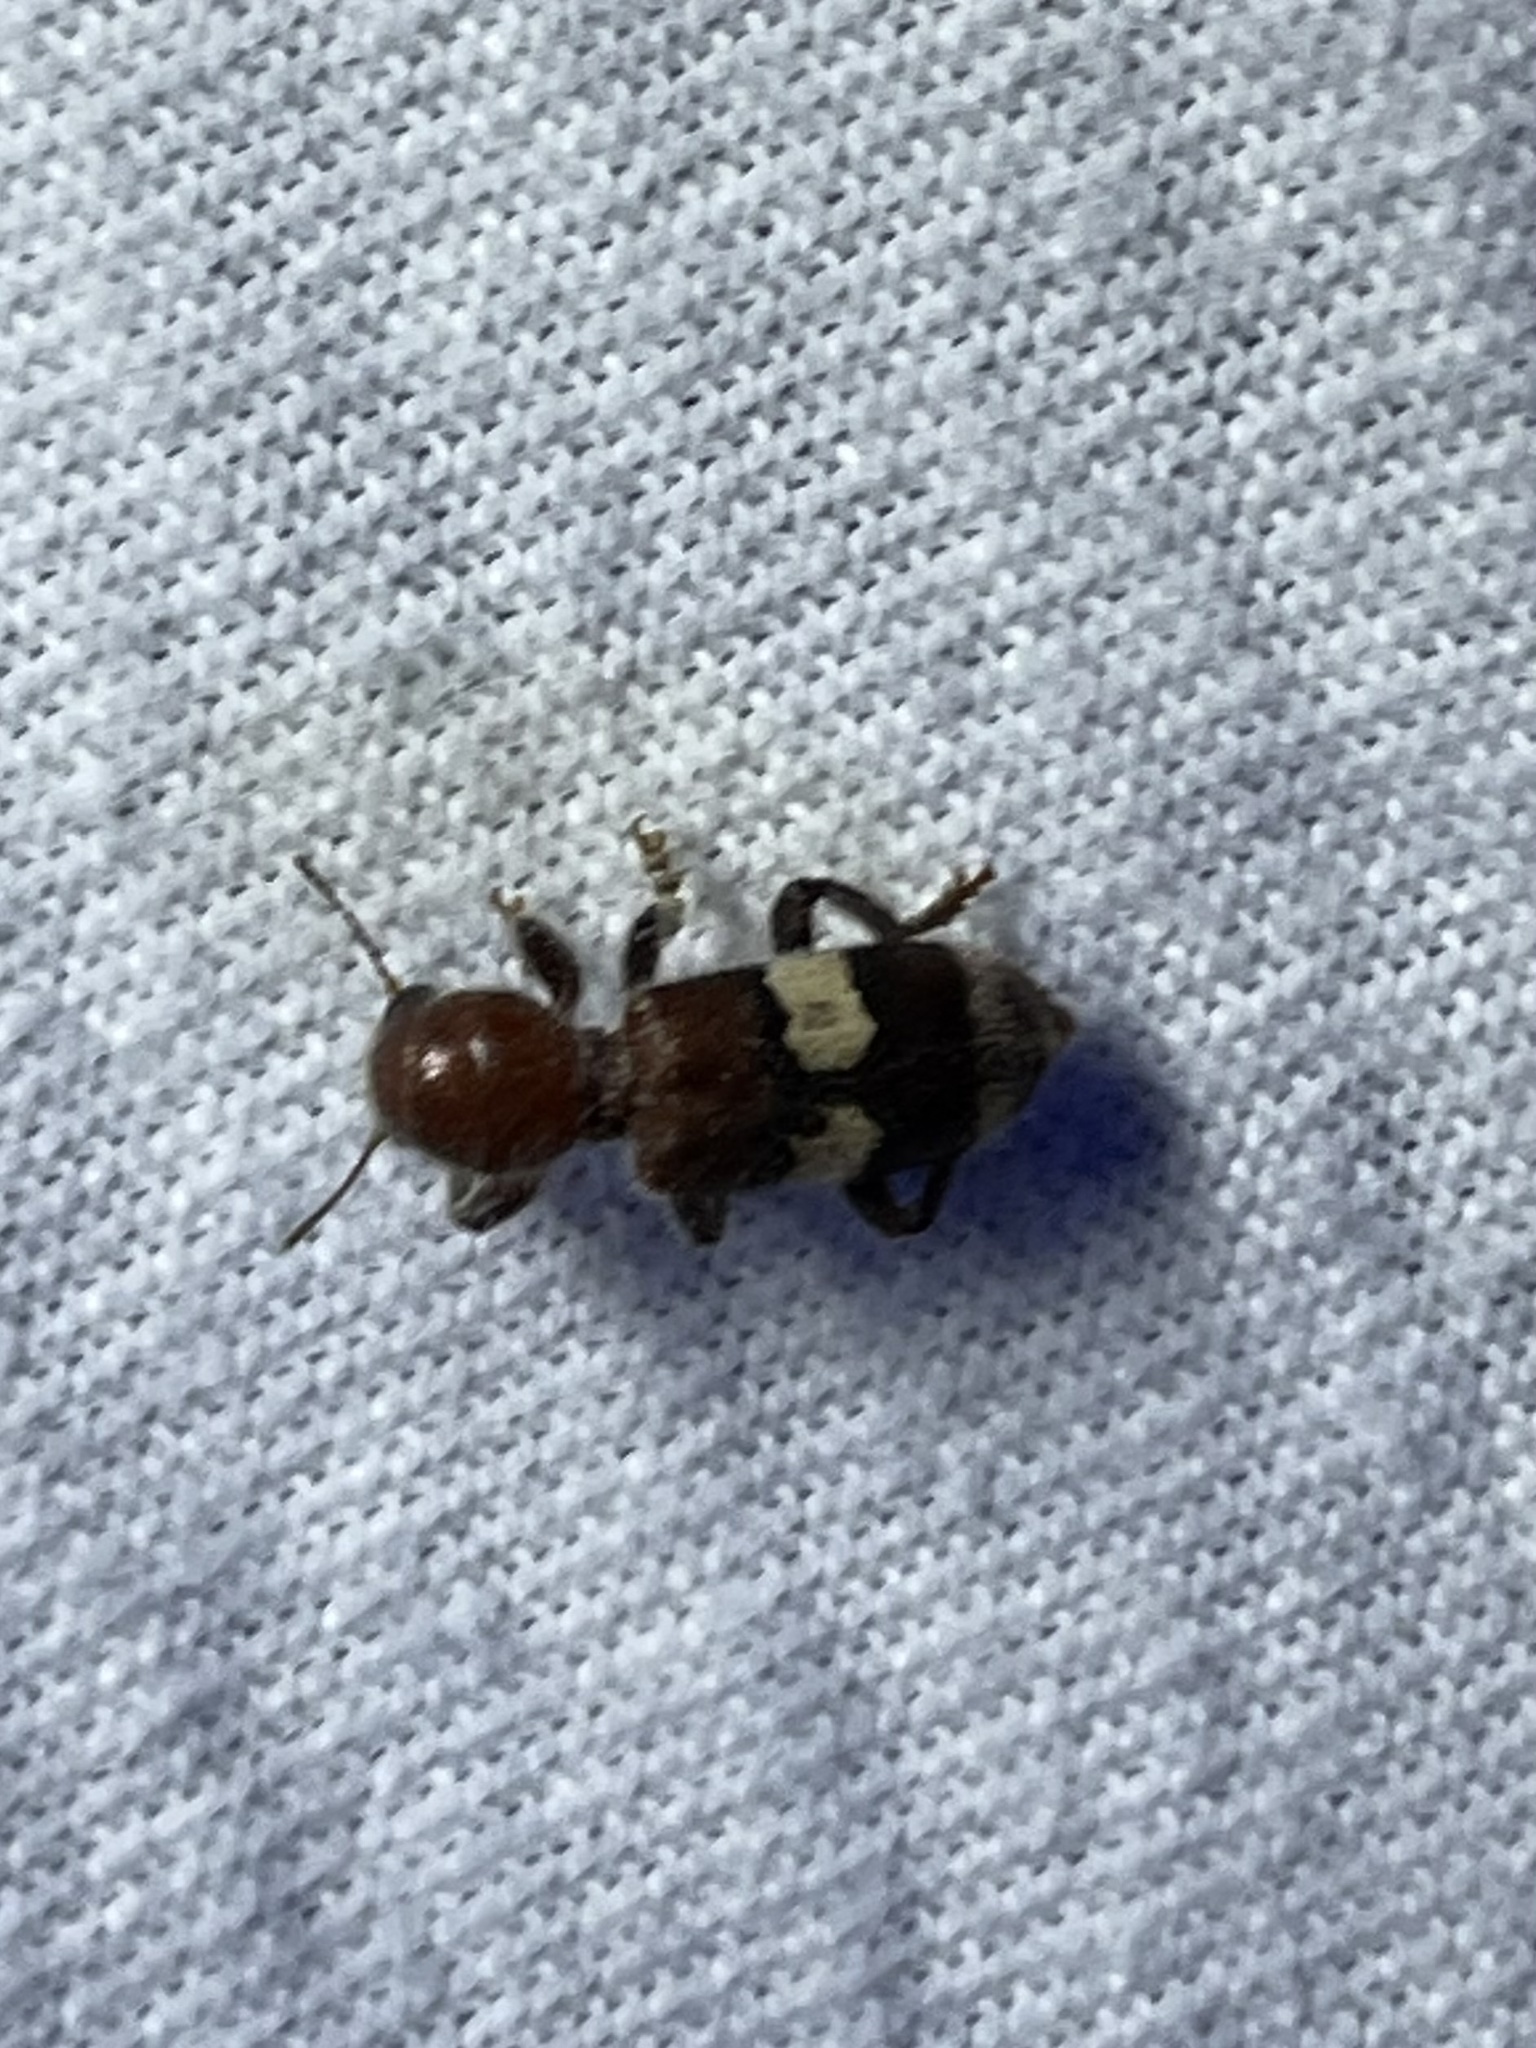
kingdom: Animalia
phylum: Arthropoda
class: Insecta
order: Coleoptera
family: Cleridae
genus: Enoclerus
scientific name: Enoclerus quadrisignatus
